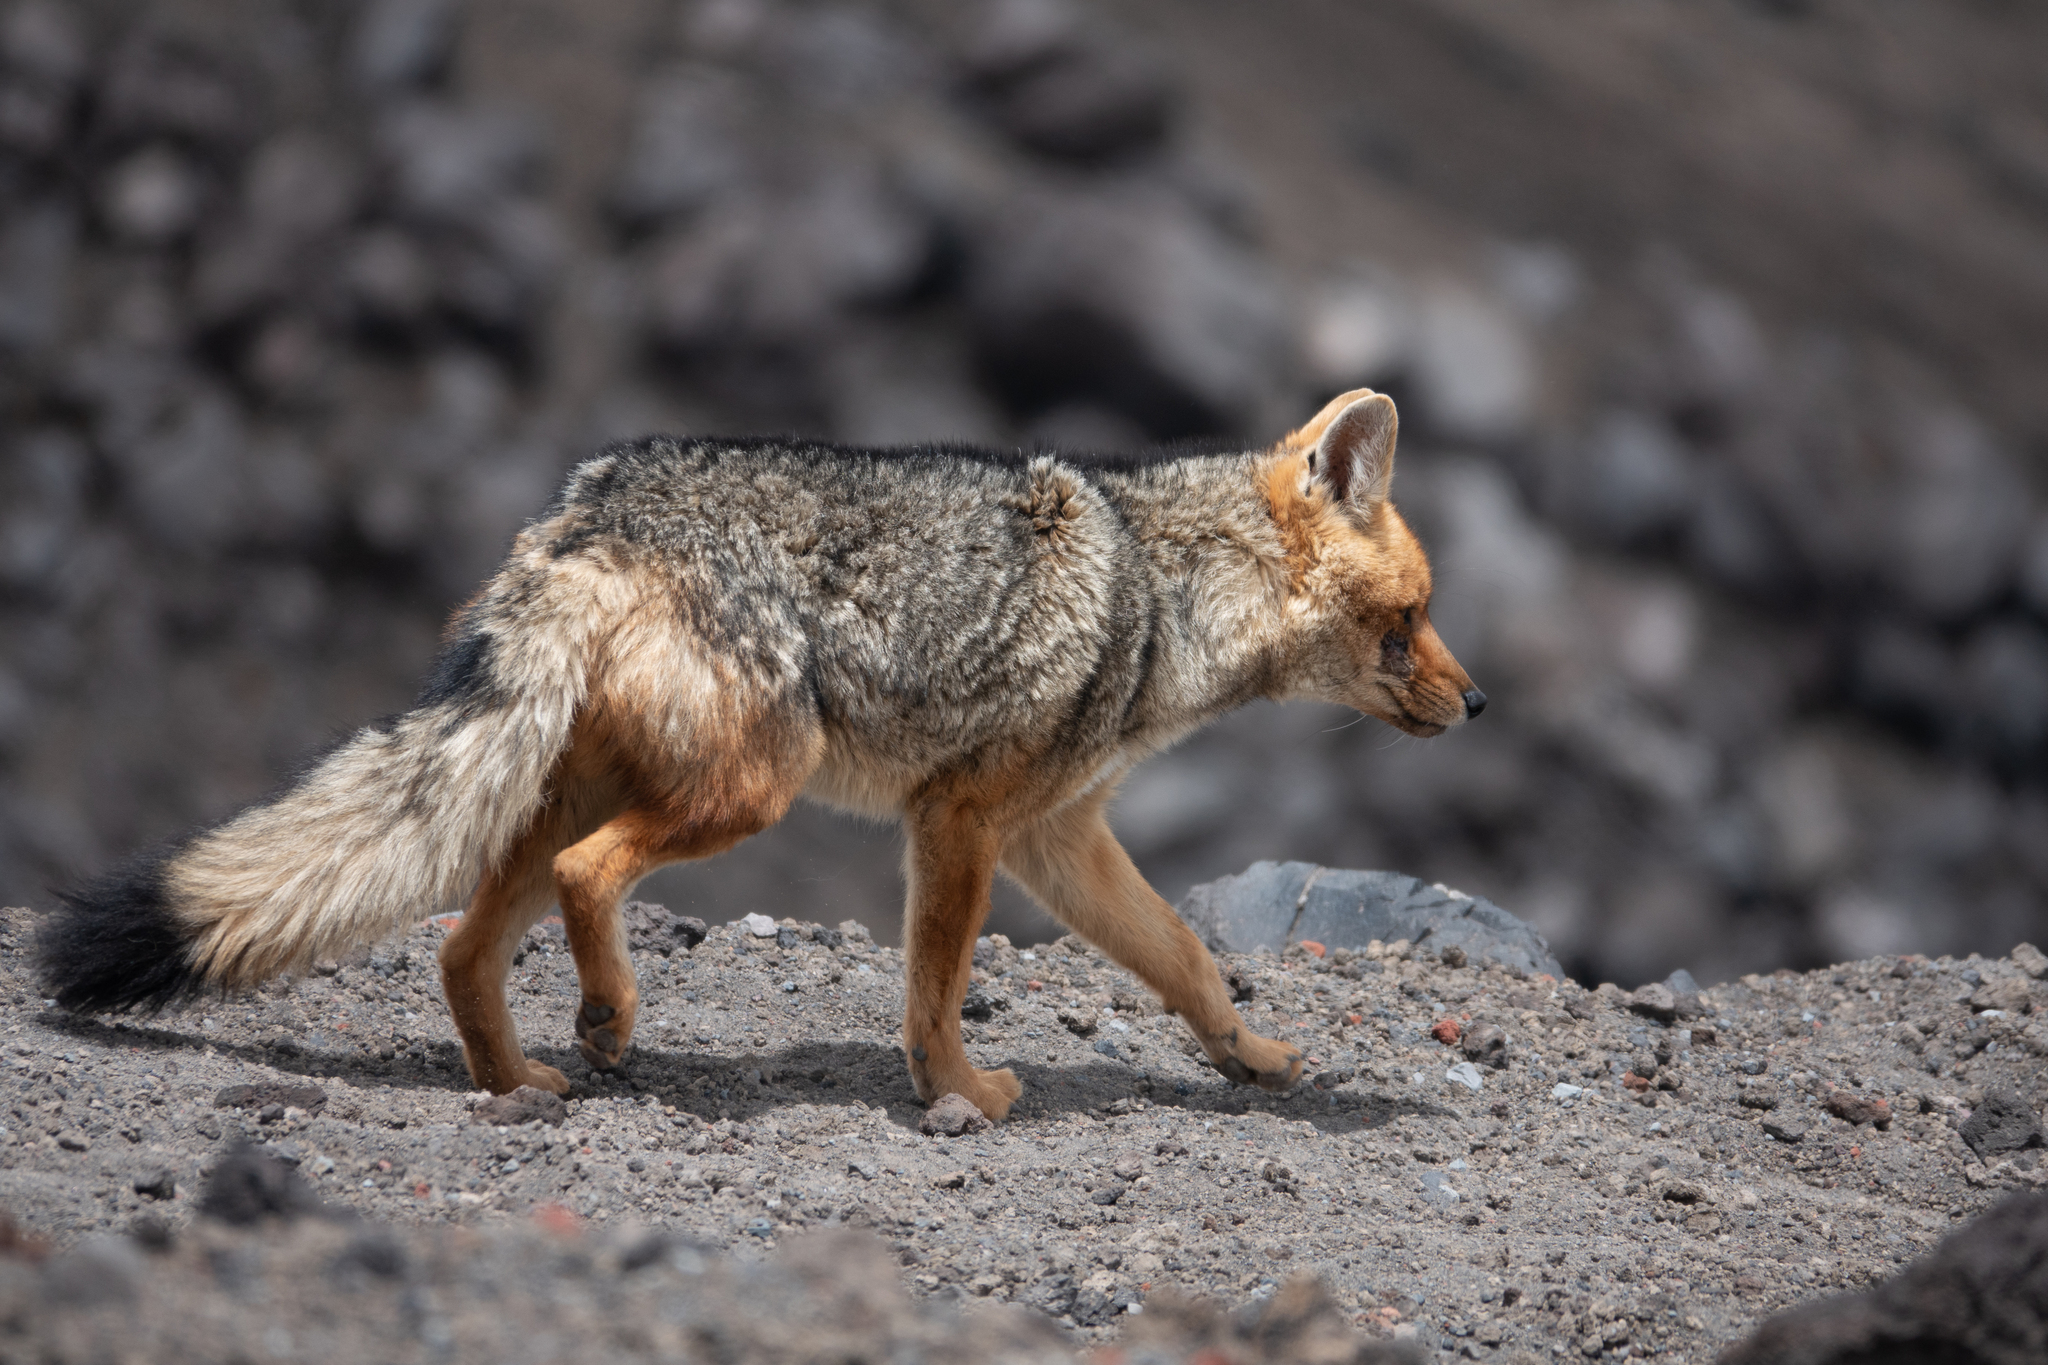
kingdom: Animalia
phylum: Chordata
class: Mammalia
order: Carnivora
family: Canidae
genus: Lycalopex
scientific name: Lycalopex culpaeus
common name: Culpeo
